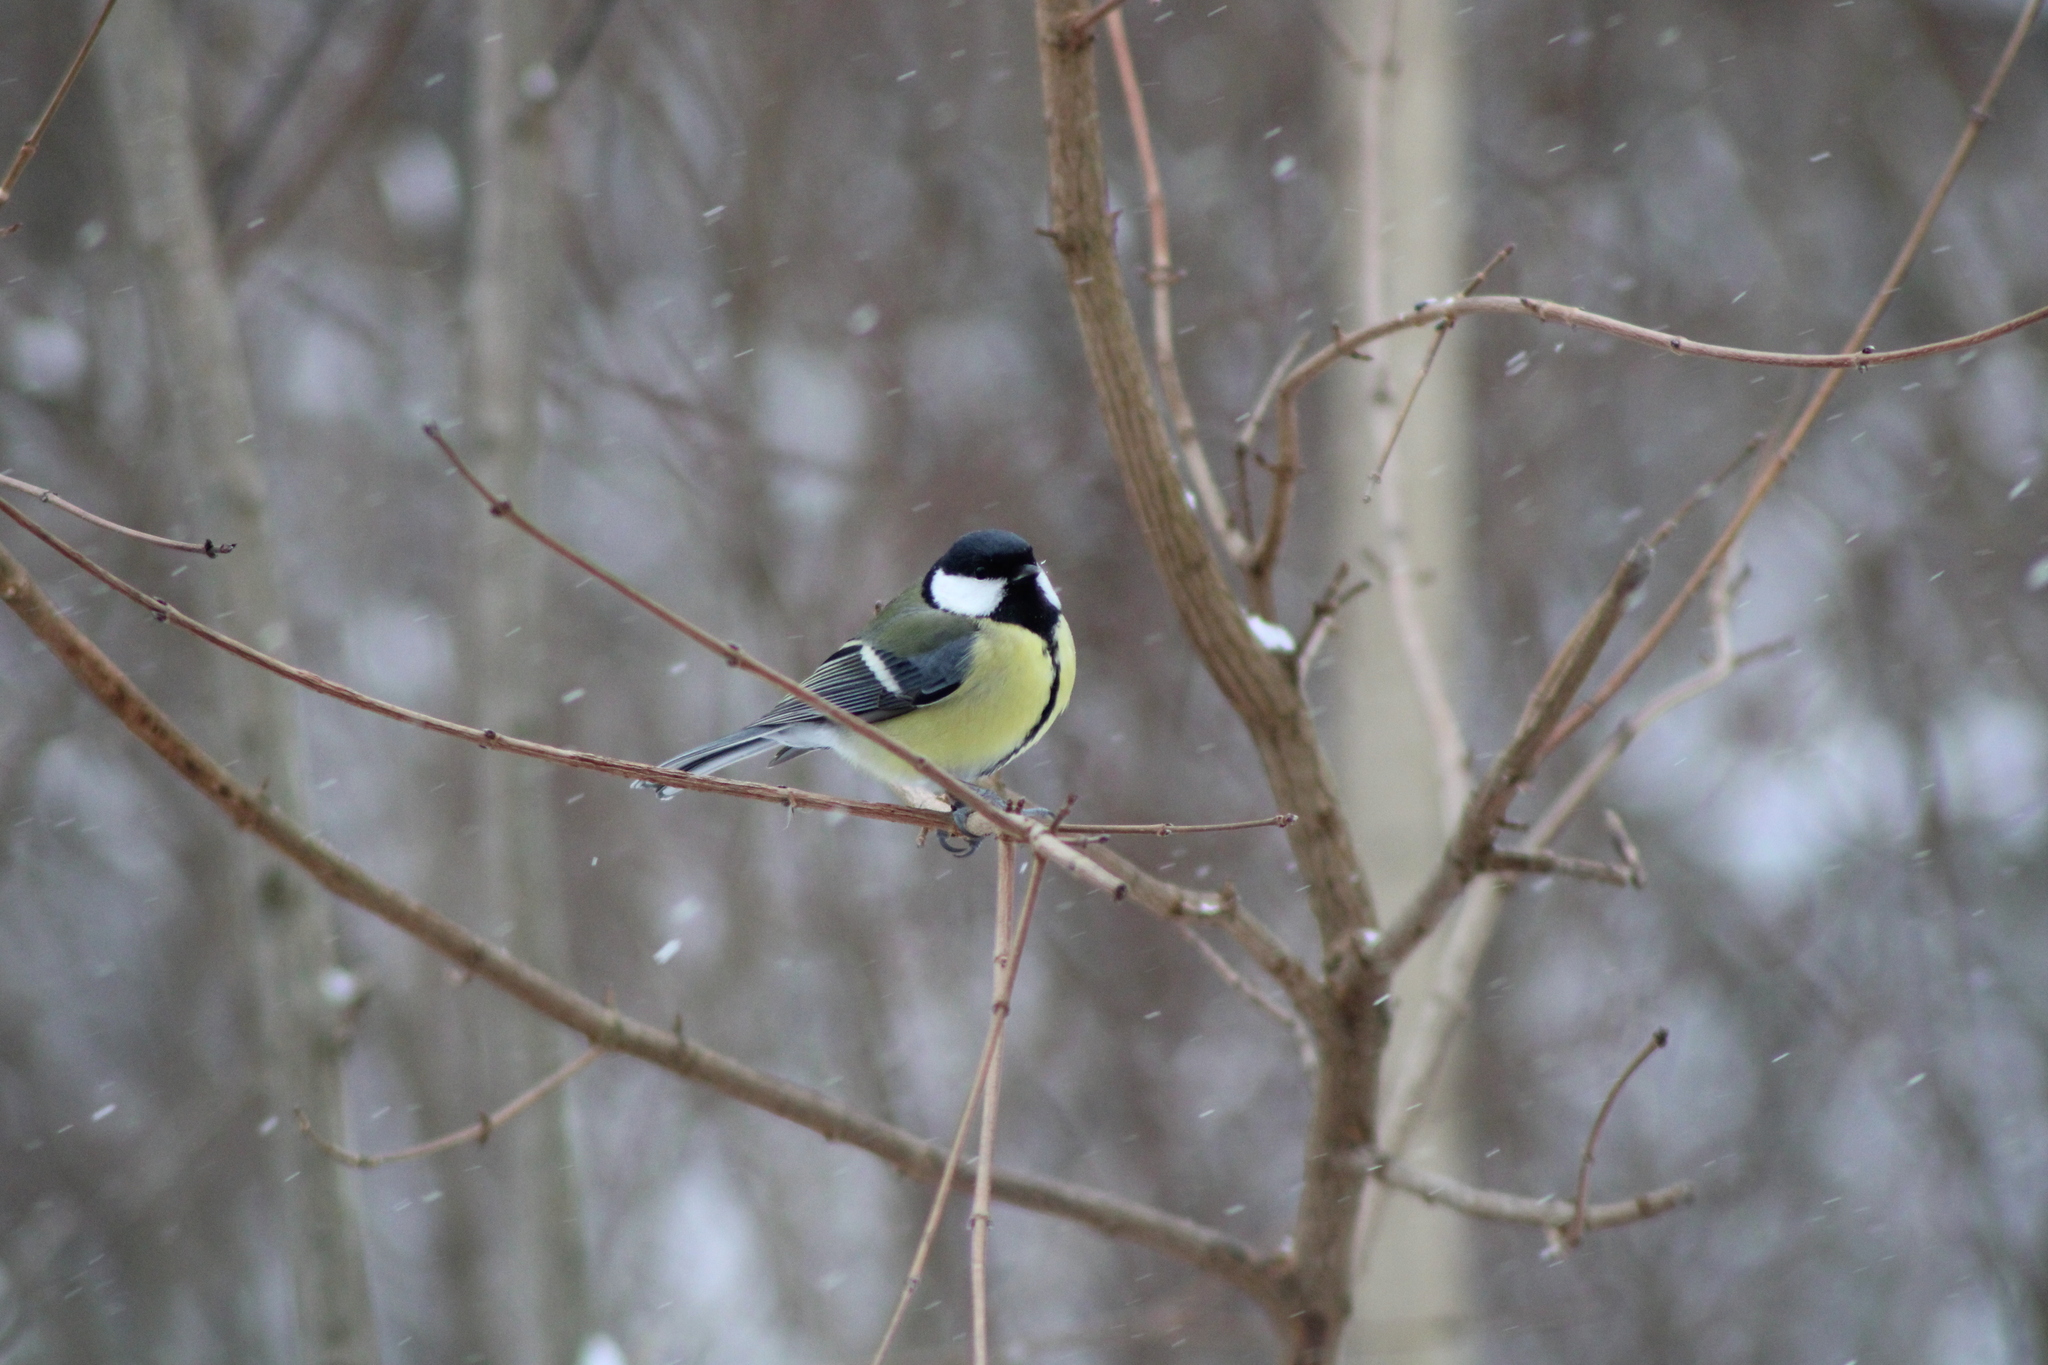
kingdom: Animalia
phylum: Chordata
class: Aves
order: Passeriformes
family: Paridae
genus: Parus
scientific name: Parus major
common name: Great tit
